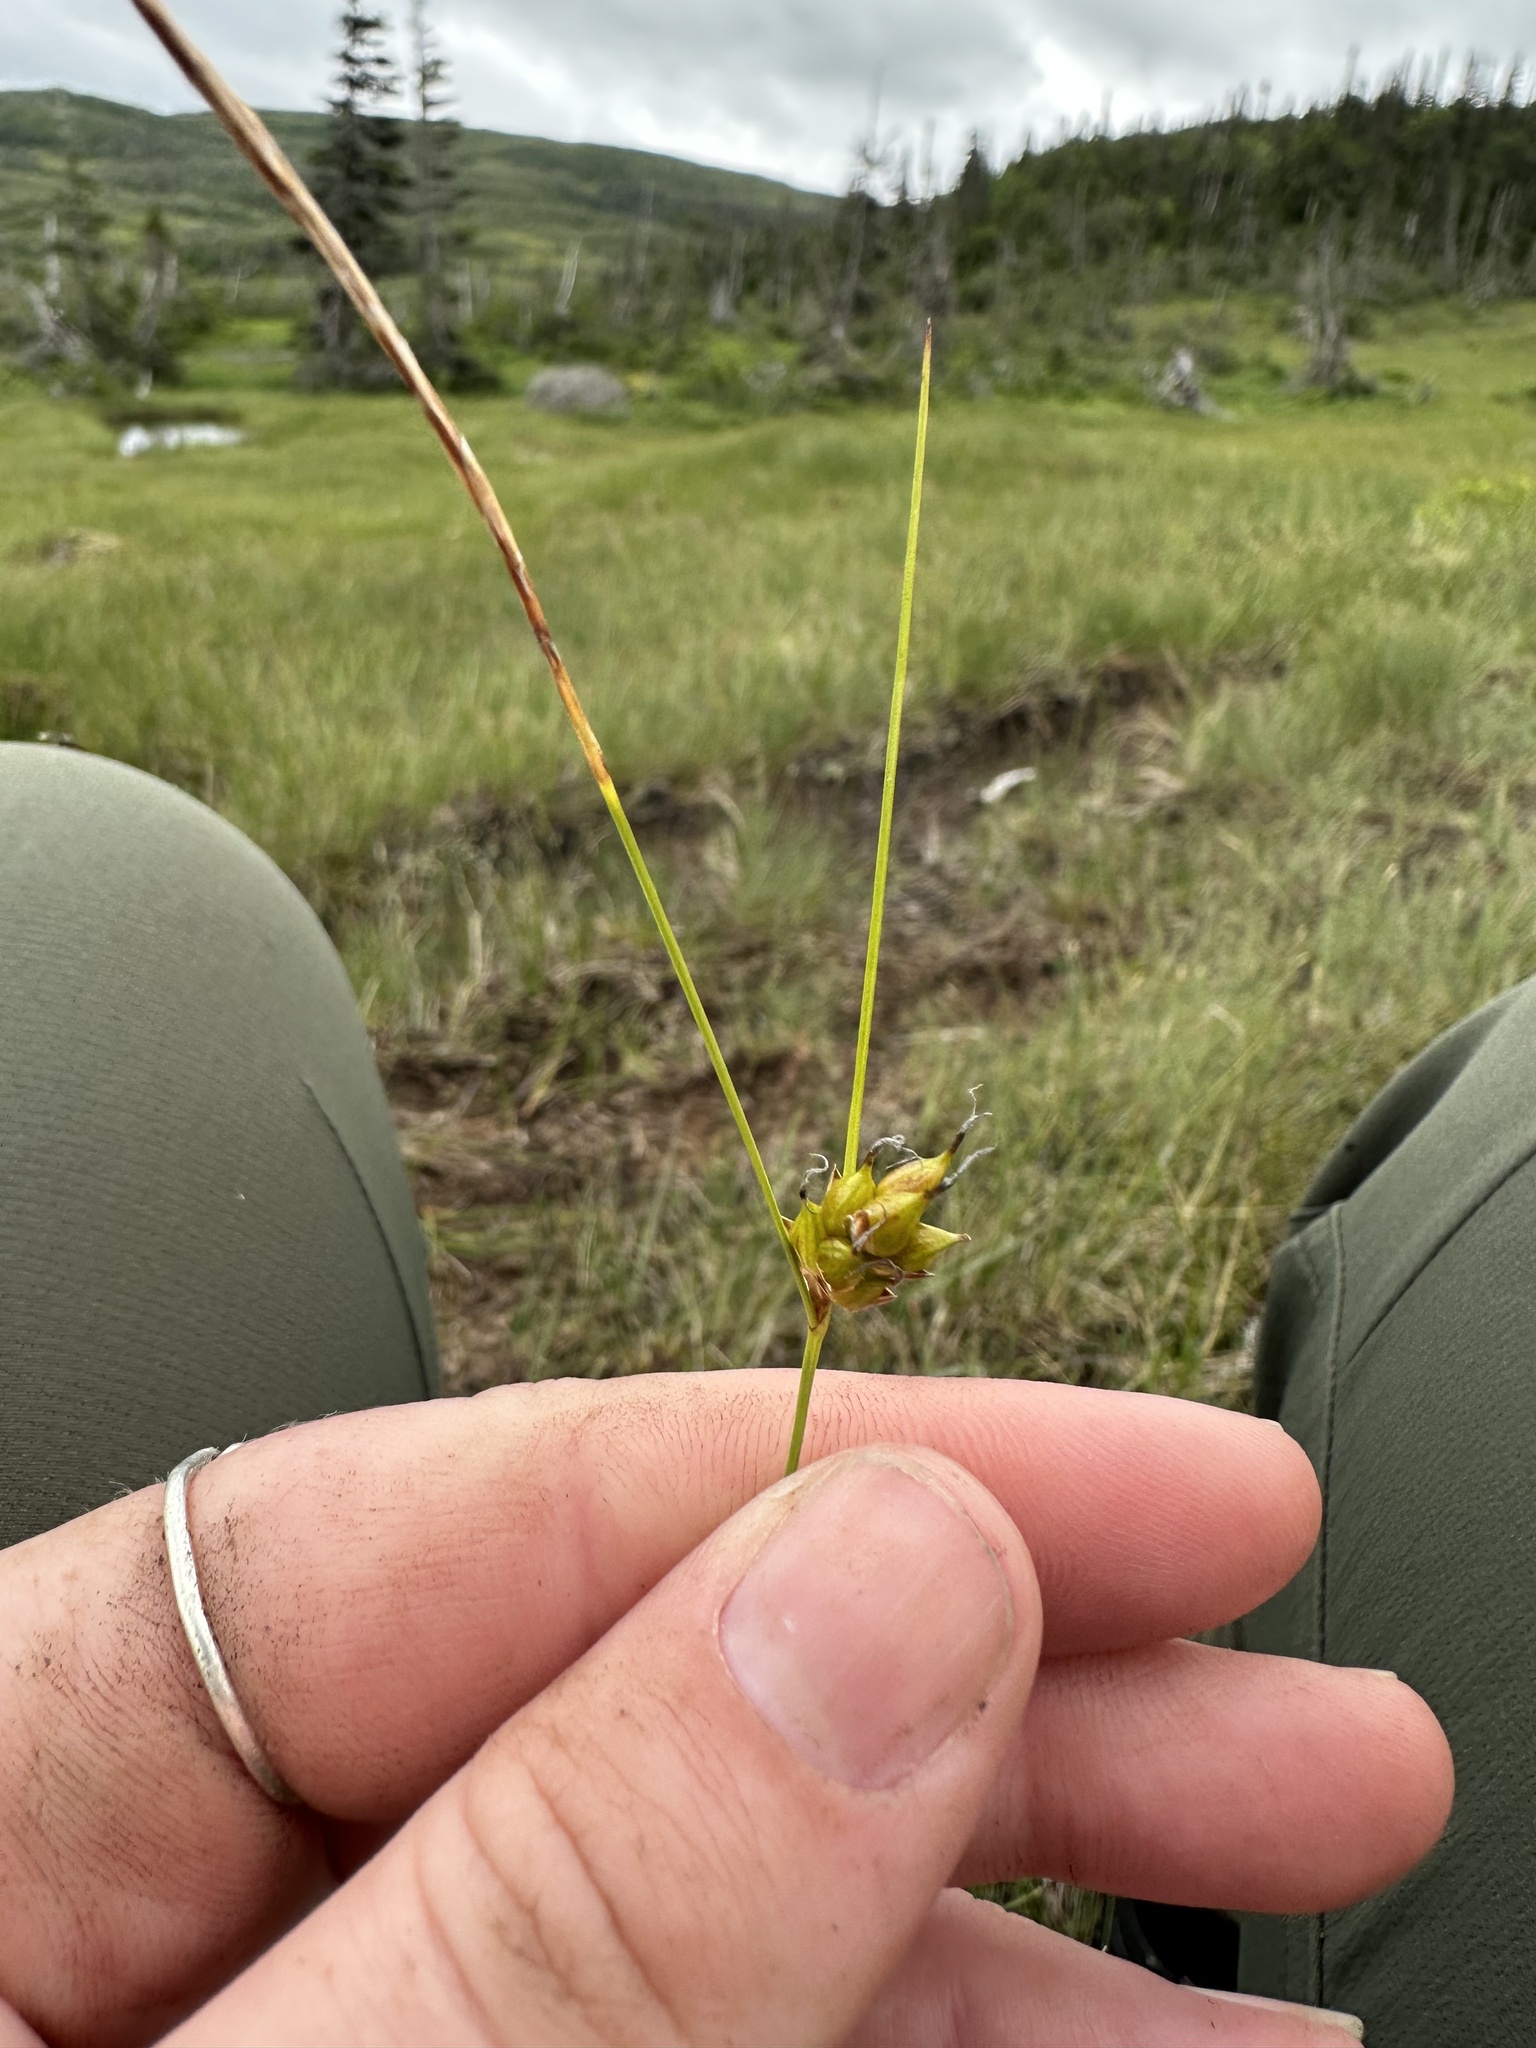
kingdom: Plantae
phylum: Tracheophyta
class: Liliopsida
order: Poales
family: Cyperaceae
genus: Carex
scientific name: Carex oligosperma
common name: Few-seed sedge
